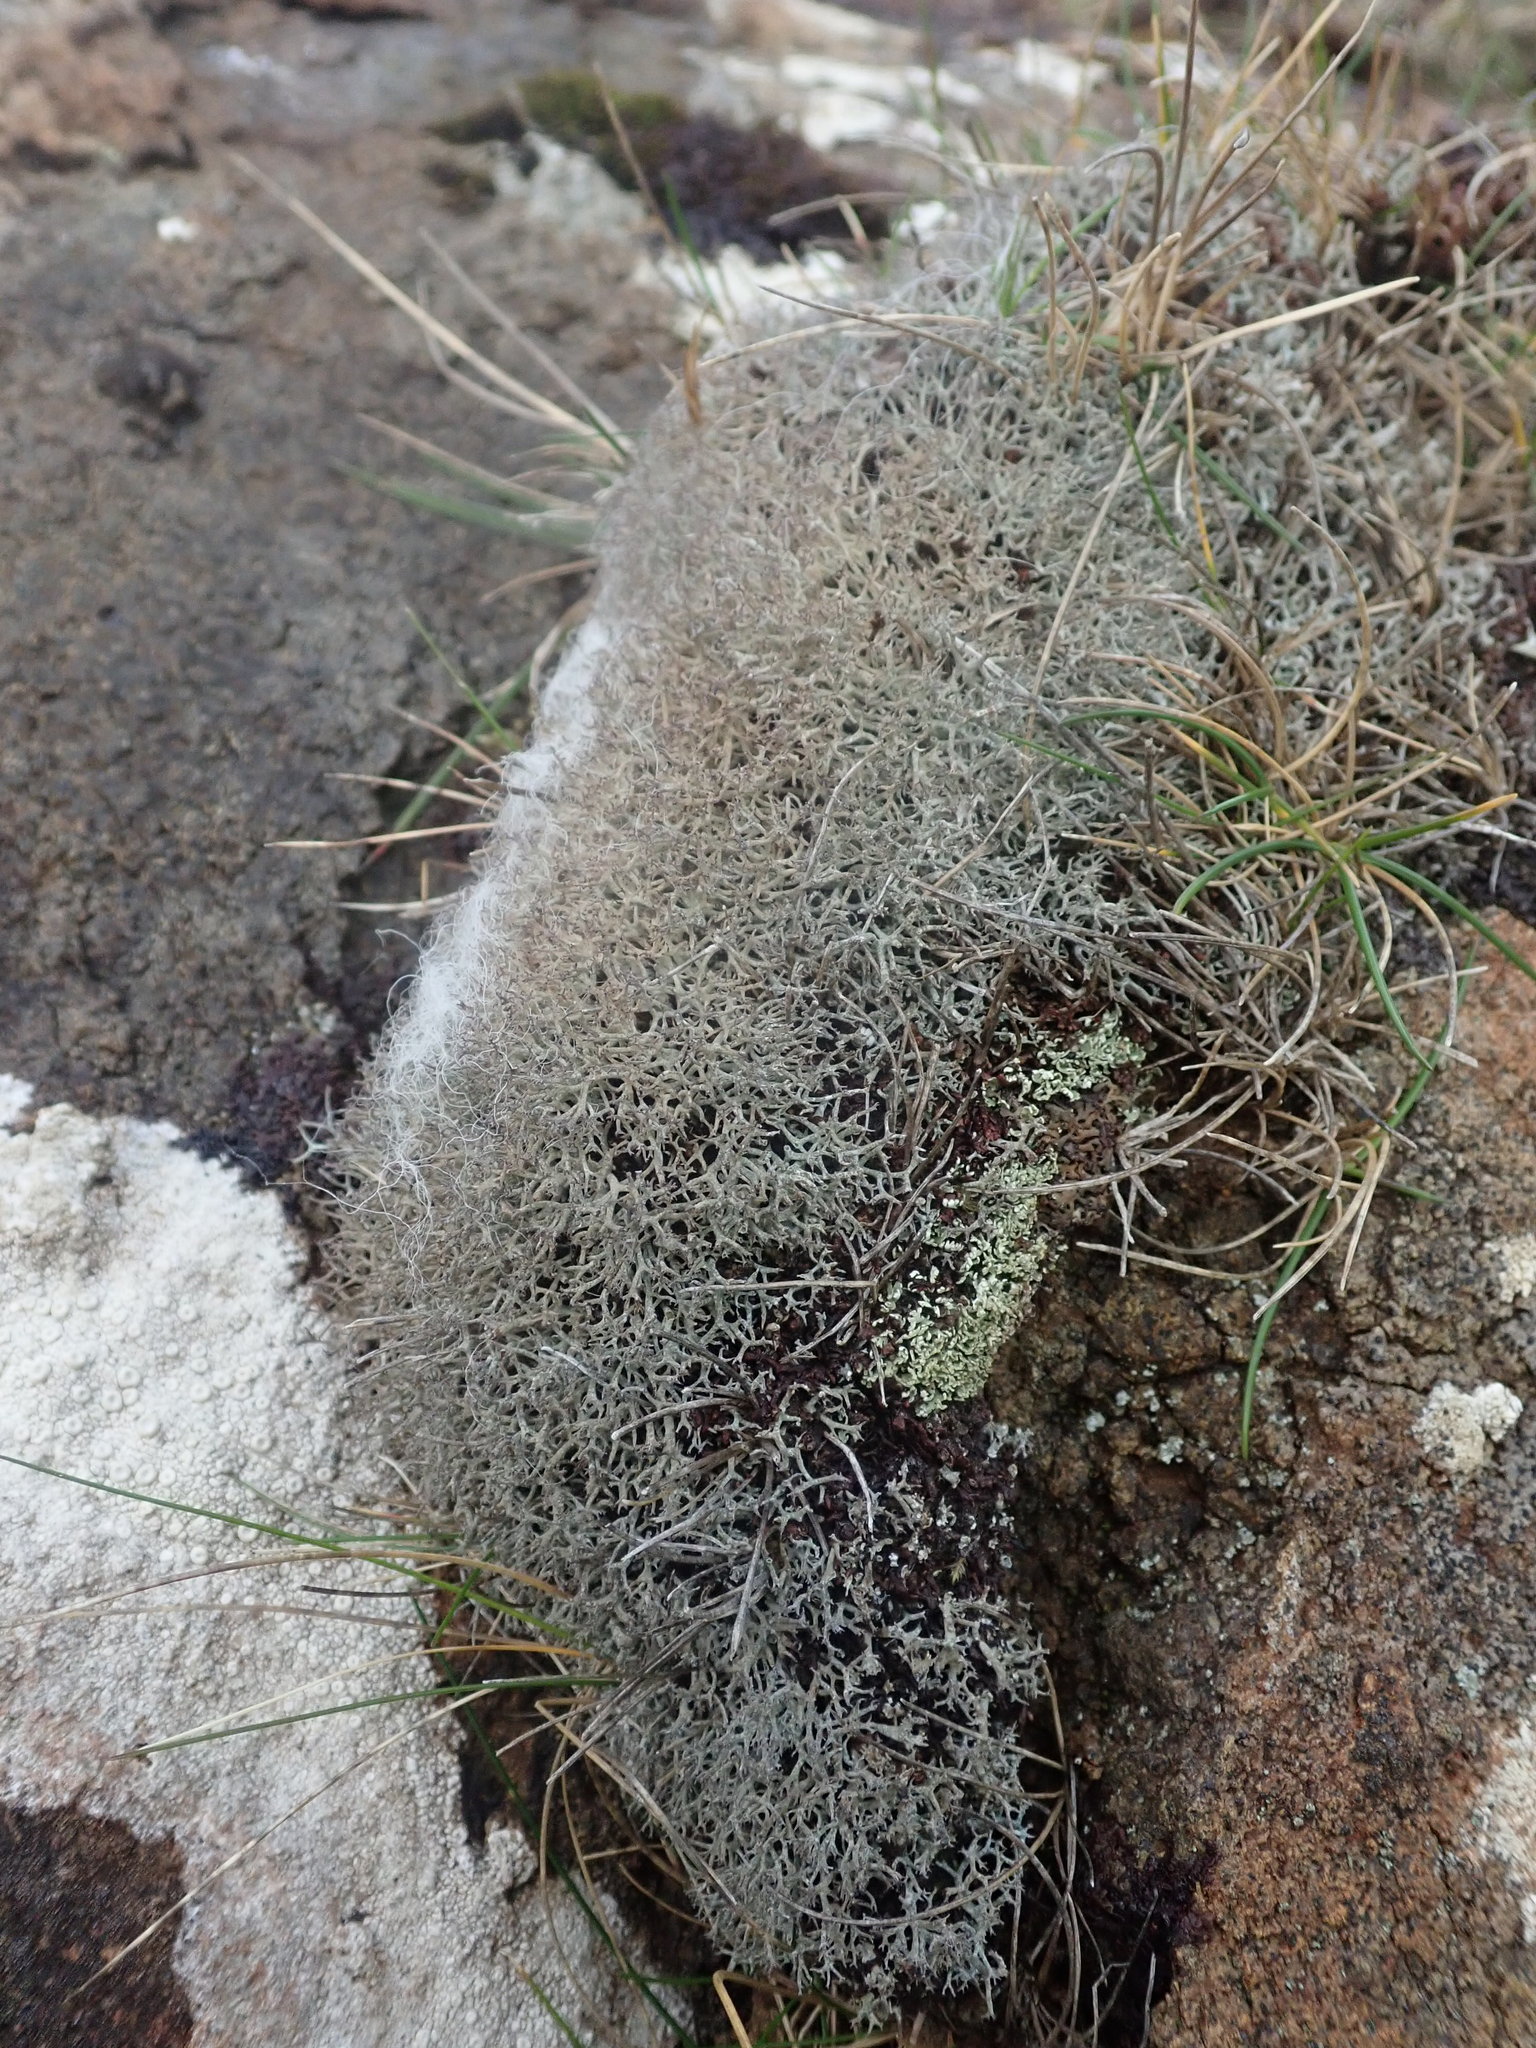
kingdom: Fungi
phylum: Ascomycota
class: Lecanoromycetes
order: Lecanorales
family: Cladoniaceae
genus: Cladonia
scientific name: Cladonia rangiformis
